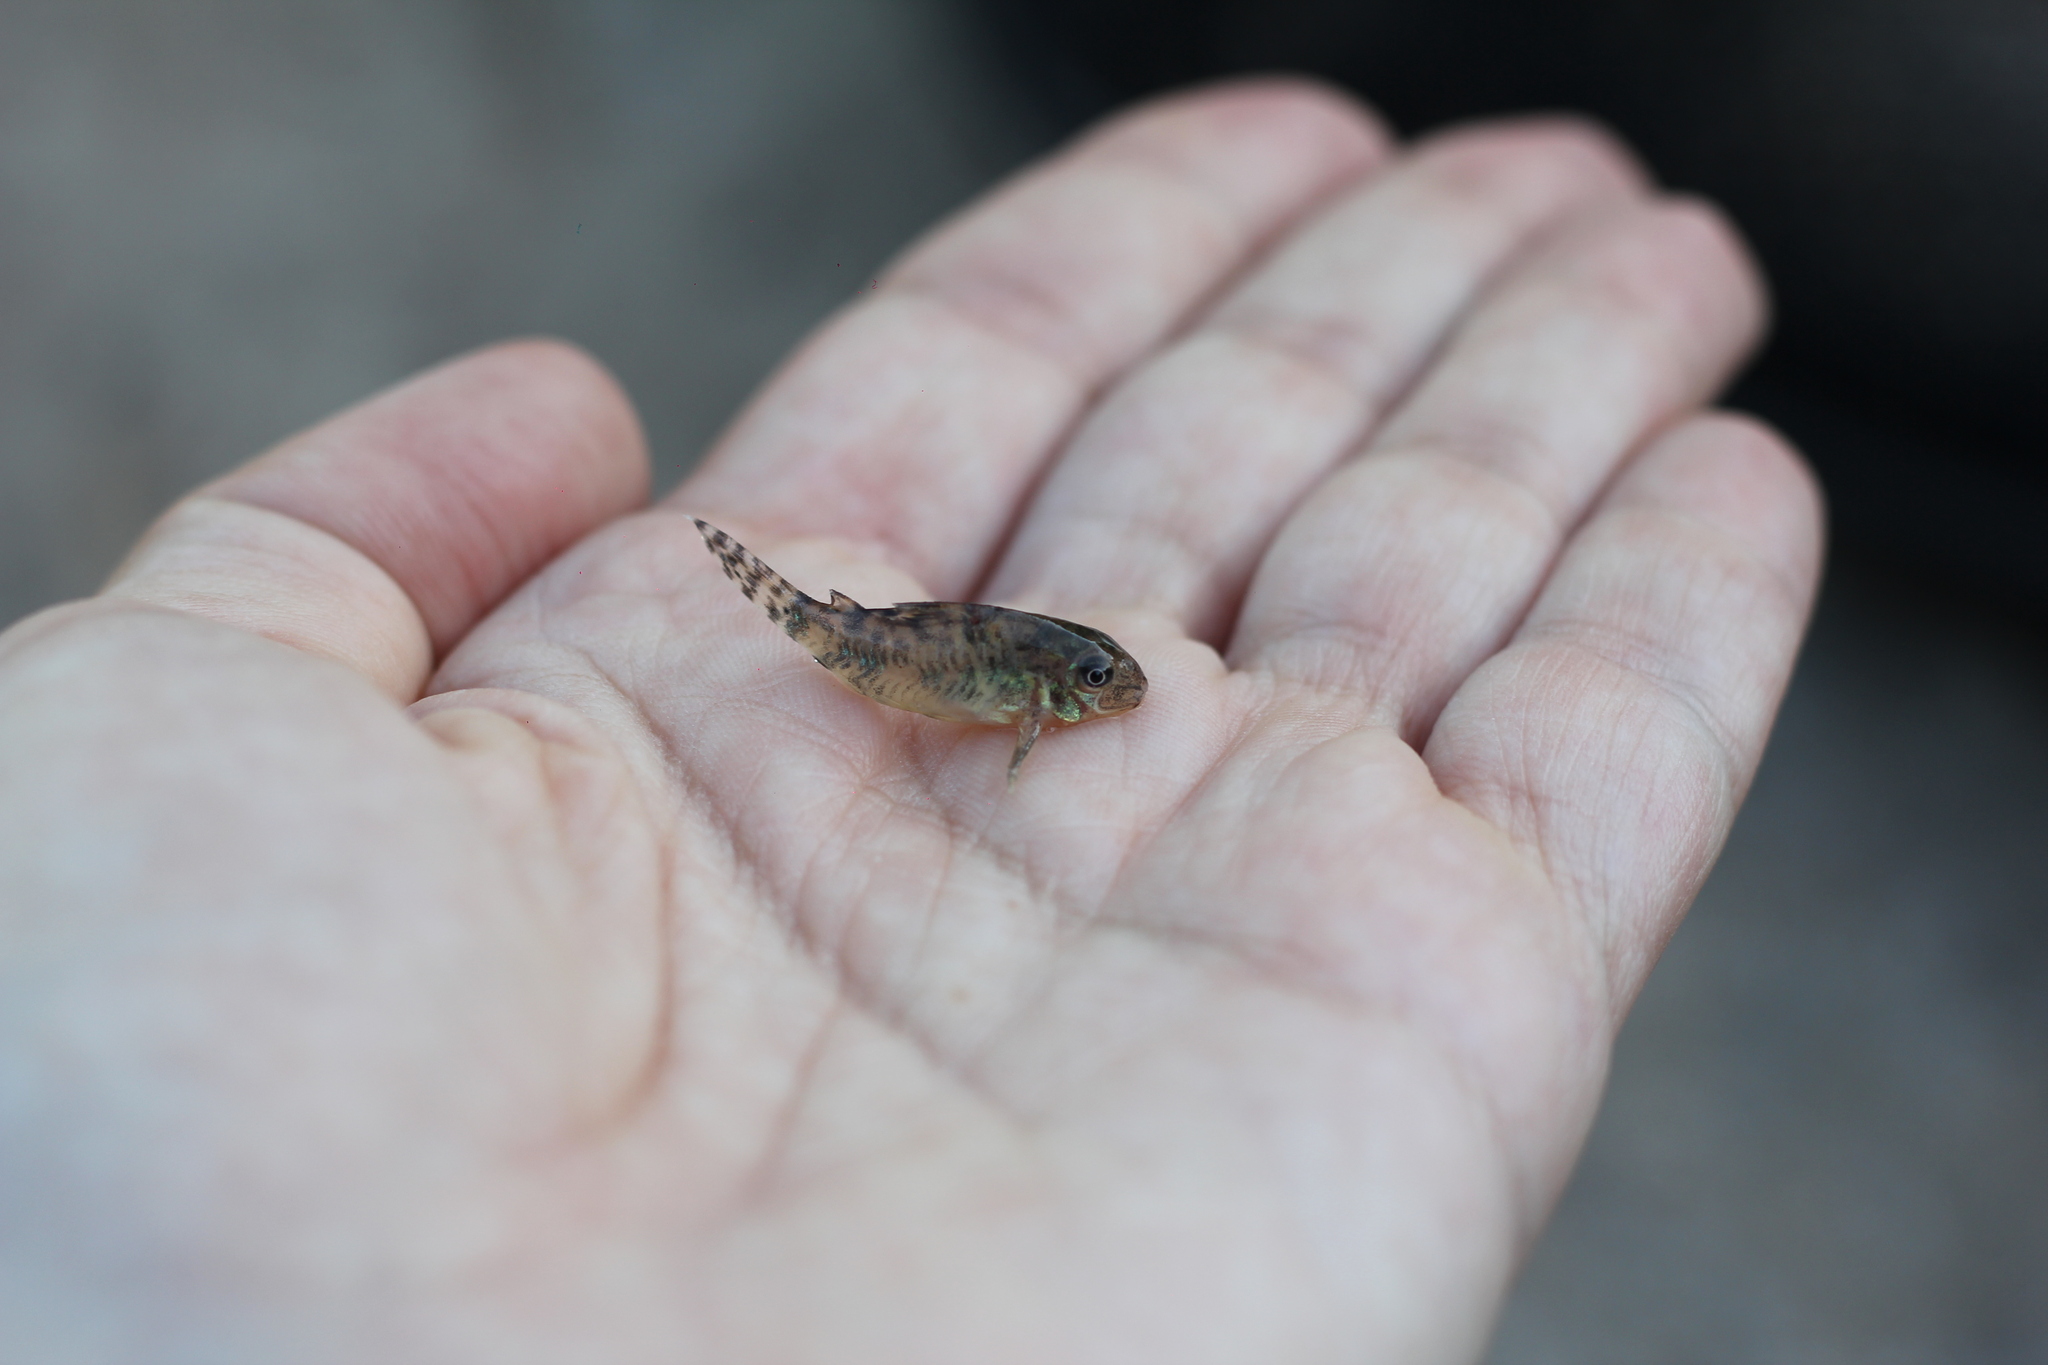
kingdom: Animalia
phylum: Chordata
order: Siluriformes
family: Callichthyidae
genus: Corydoras
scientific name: Corydoras longipinnis
